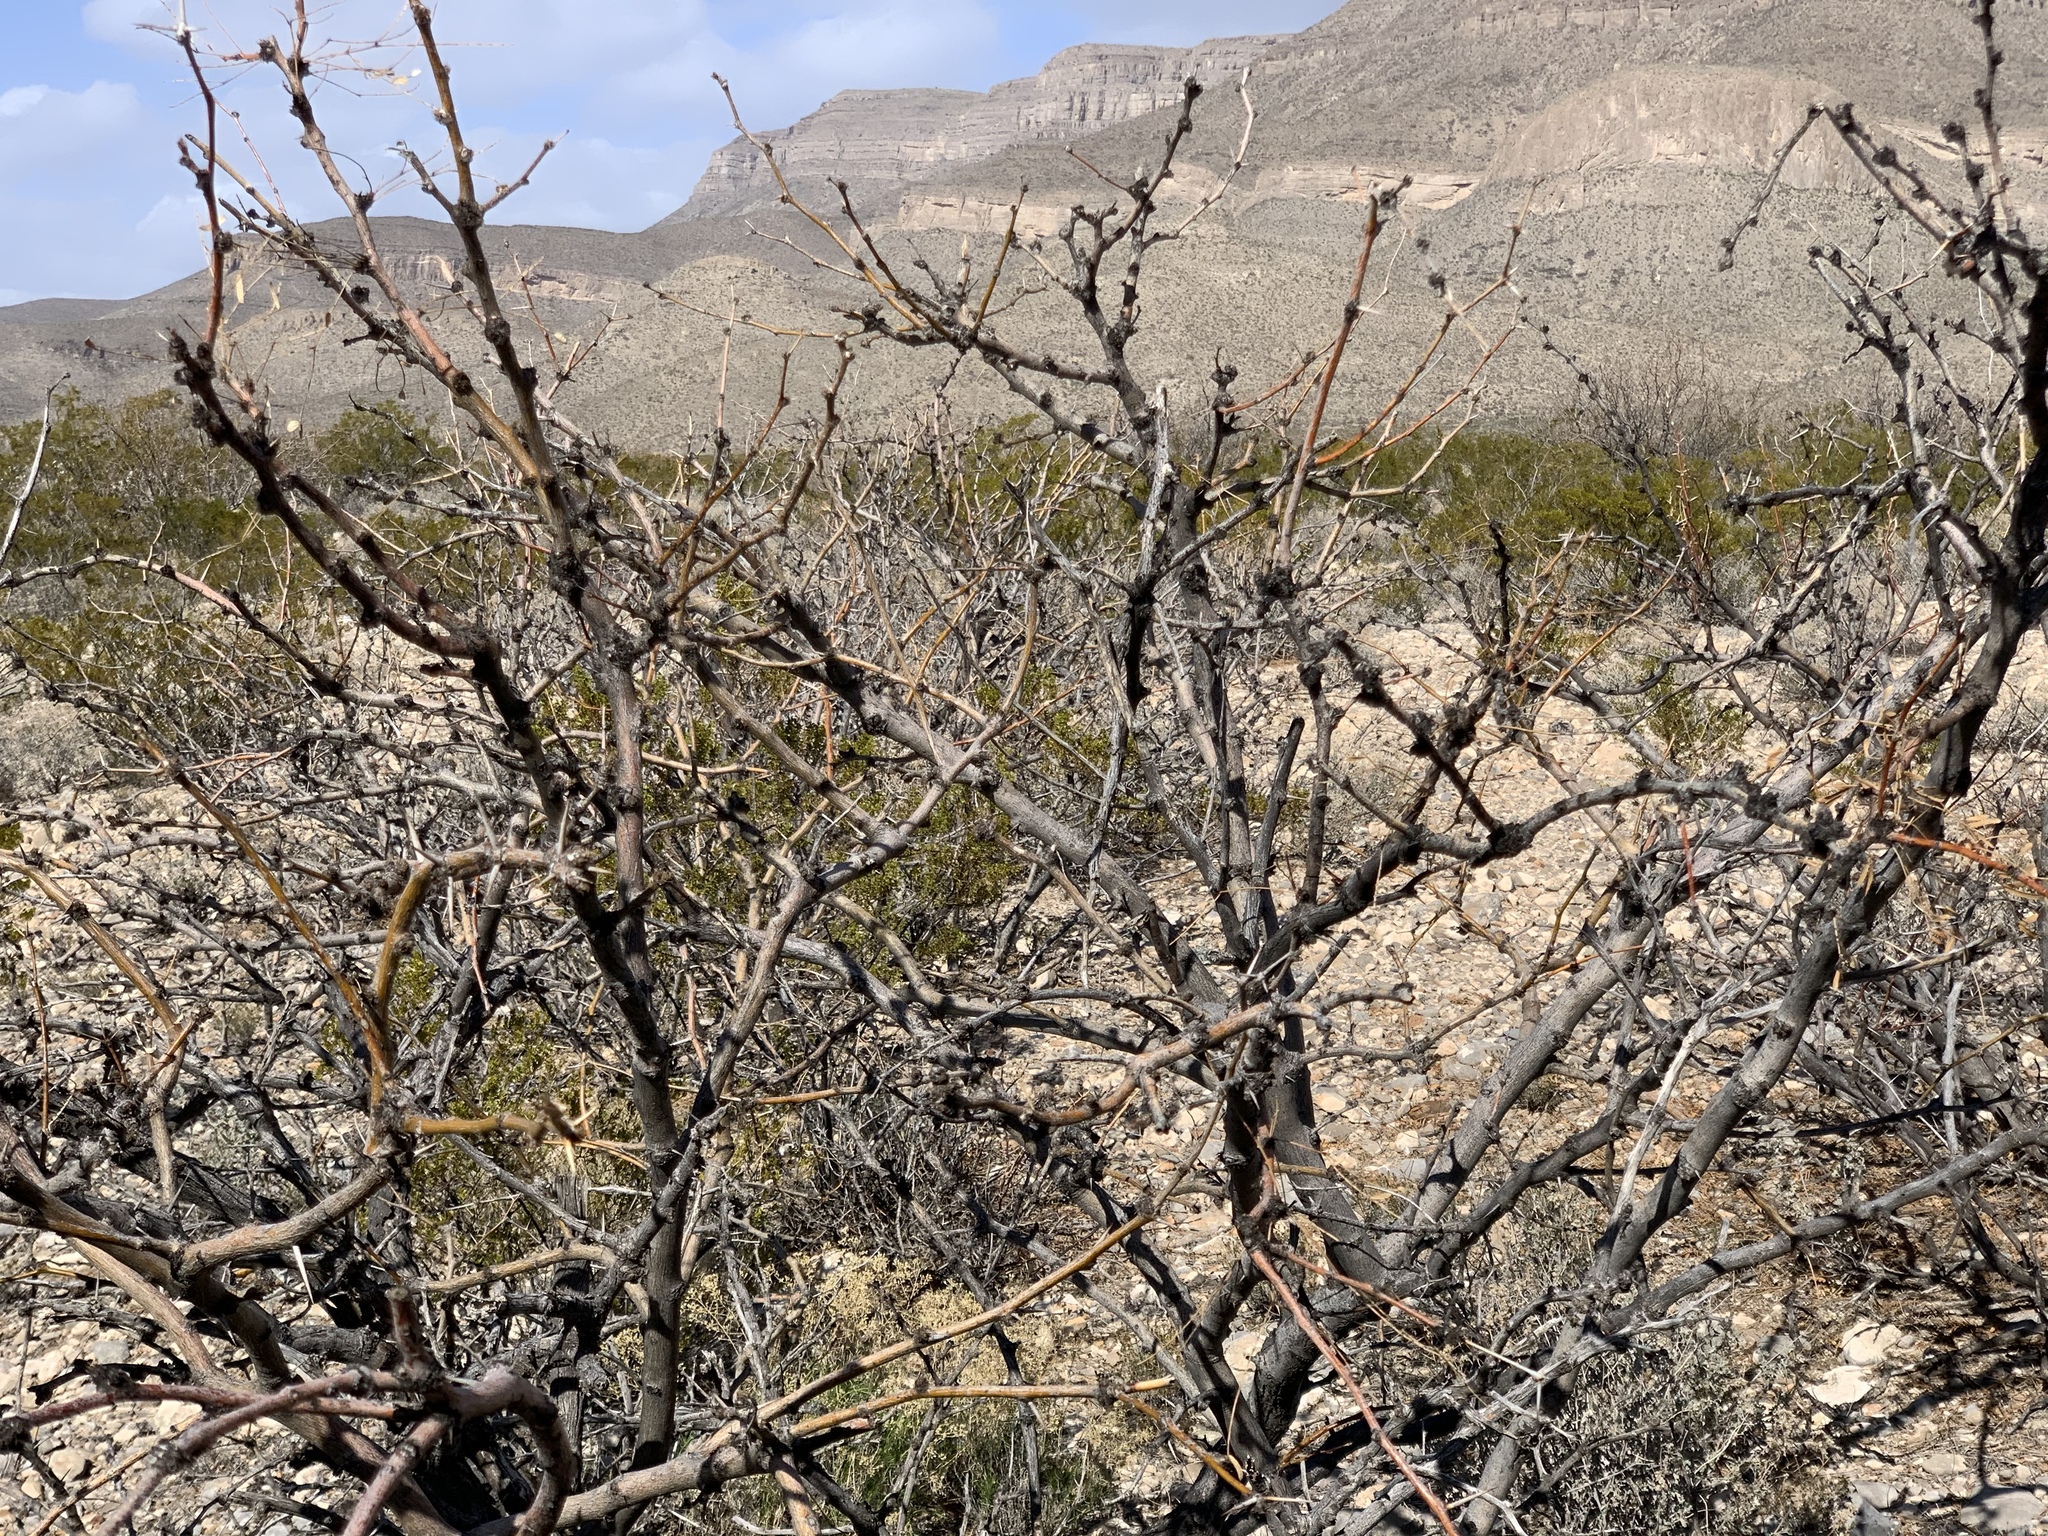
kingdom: Plantae
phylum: Tracheophyta
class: Magnoliopsida
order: Fabales
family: Fabaceae
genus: Prosopis
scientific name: Prosopis glandulosa
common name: Honey mesquite
